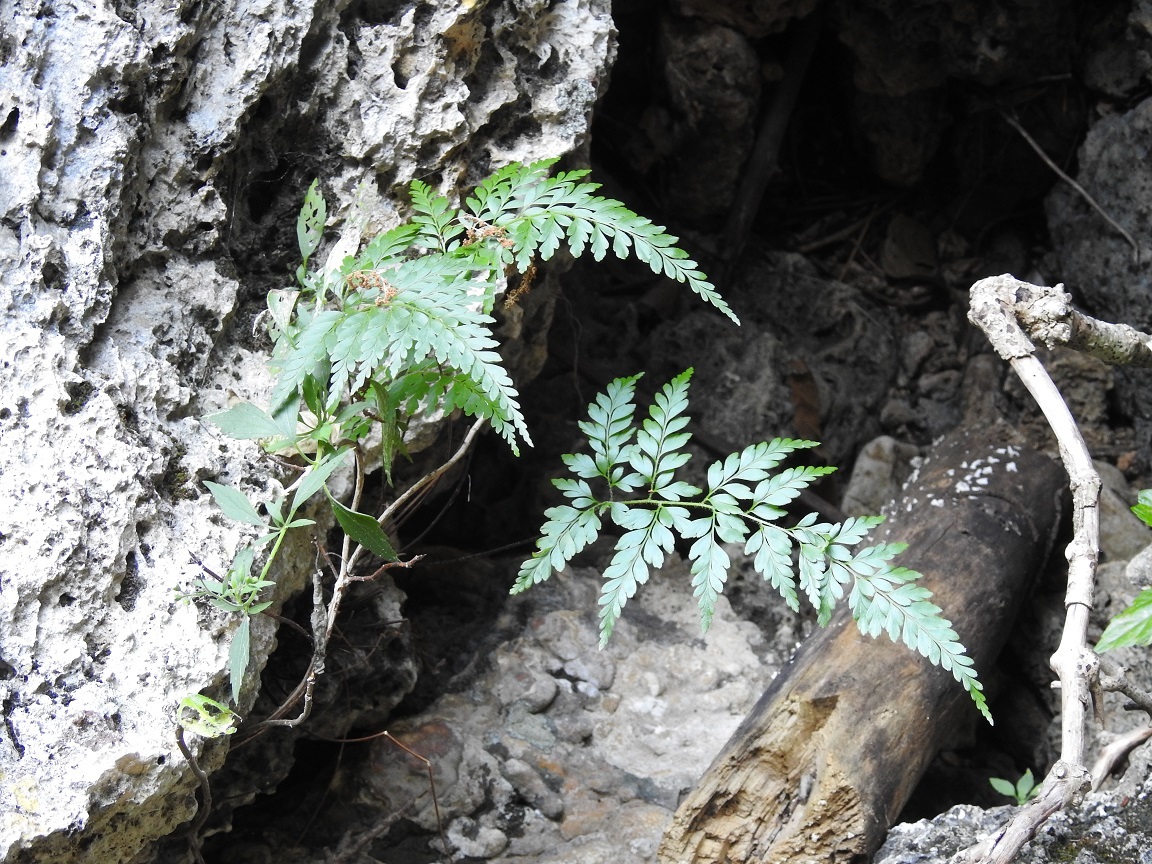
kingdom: Plantae
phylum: Tracheophyta
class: Polypodiopsida
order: Schizaeales
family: Anemiaceae
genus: Anemia
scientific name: Anemia adiantifolia
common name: Pine fern
